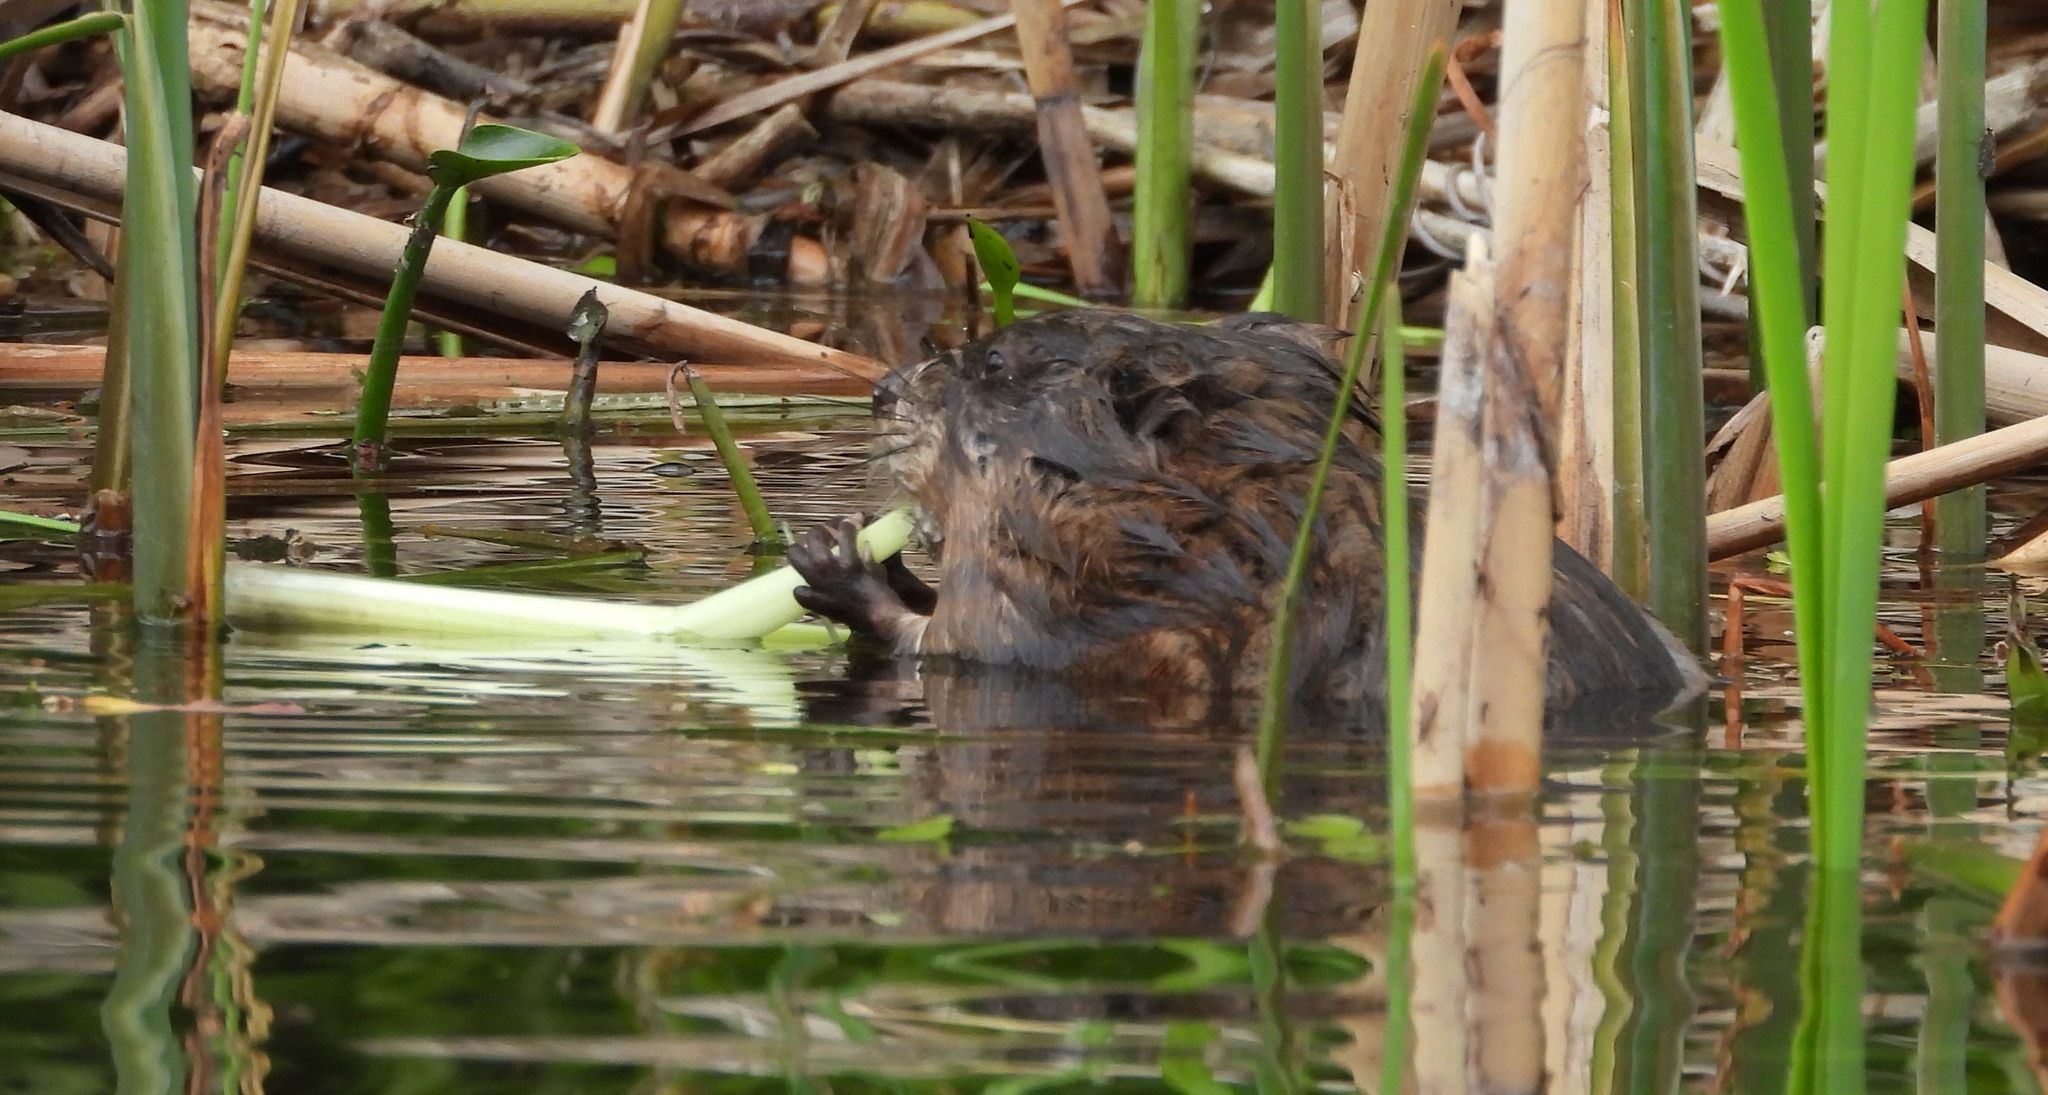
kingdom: Animalia
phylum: Chordata
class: Mammalia
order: Rodentia
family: Cricetidae
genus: Ondatra
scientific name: Ondatra zibethicus
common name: Muskrat
